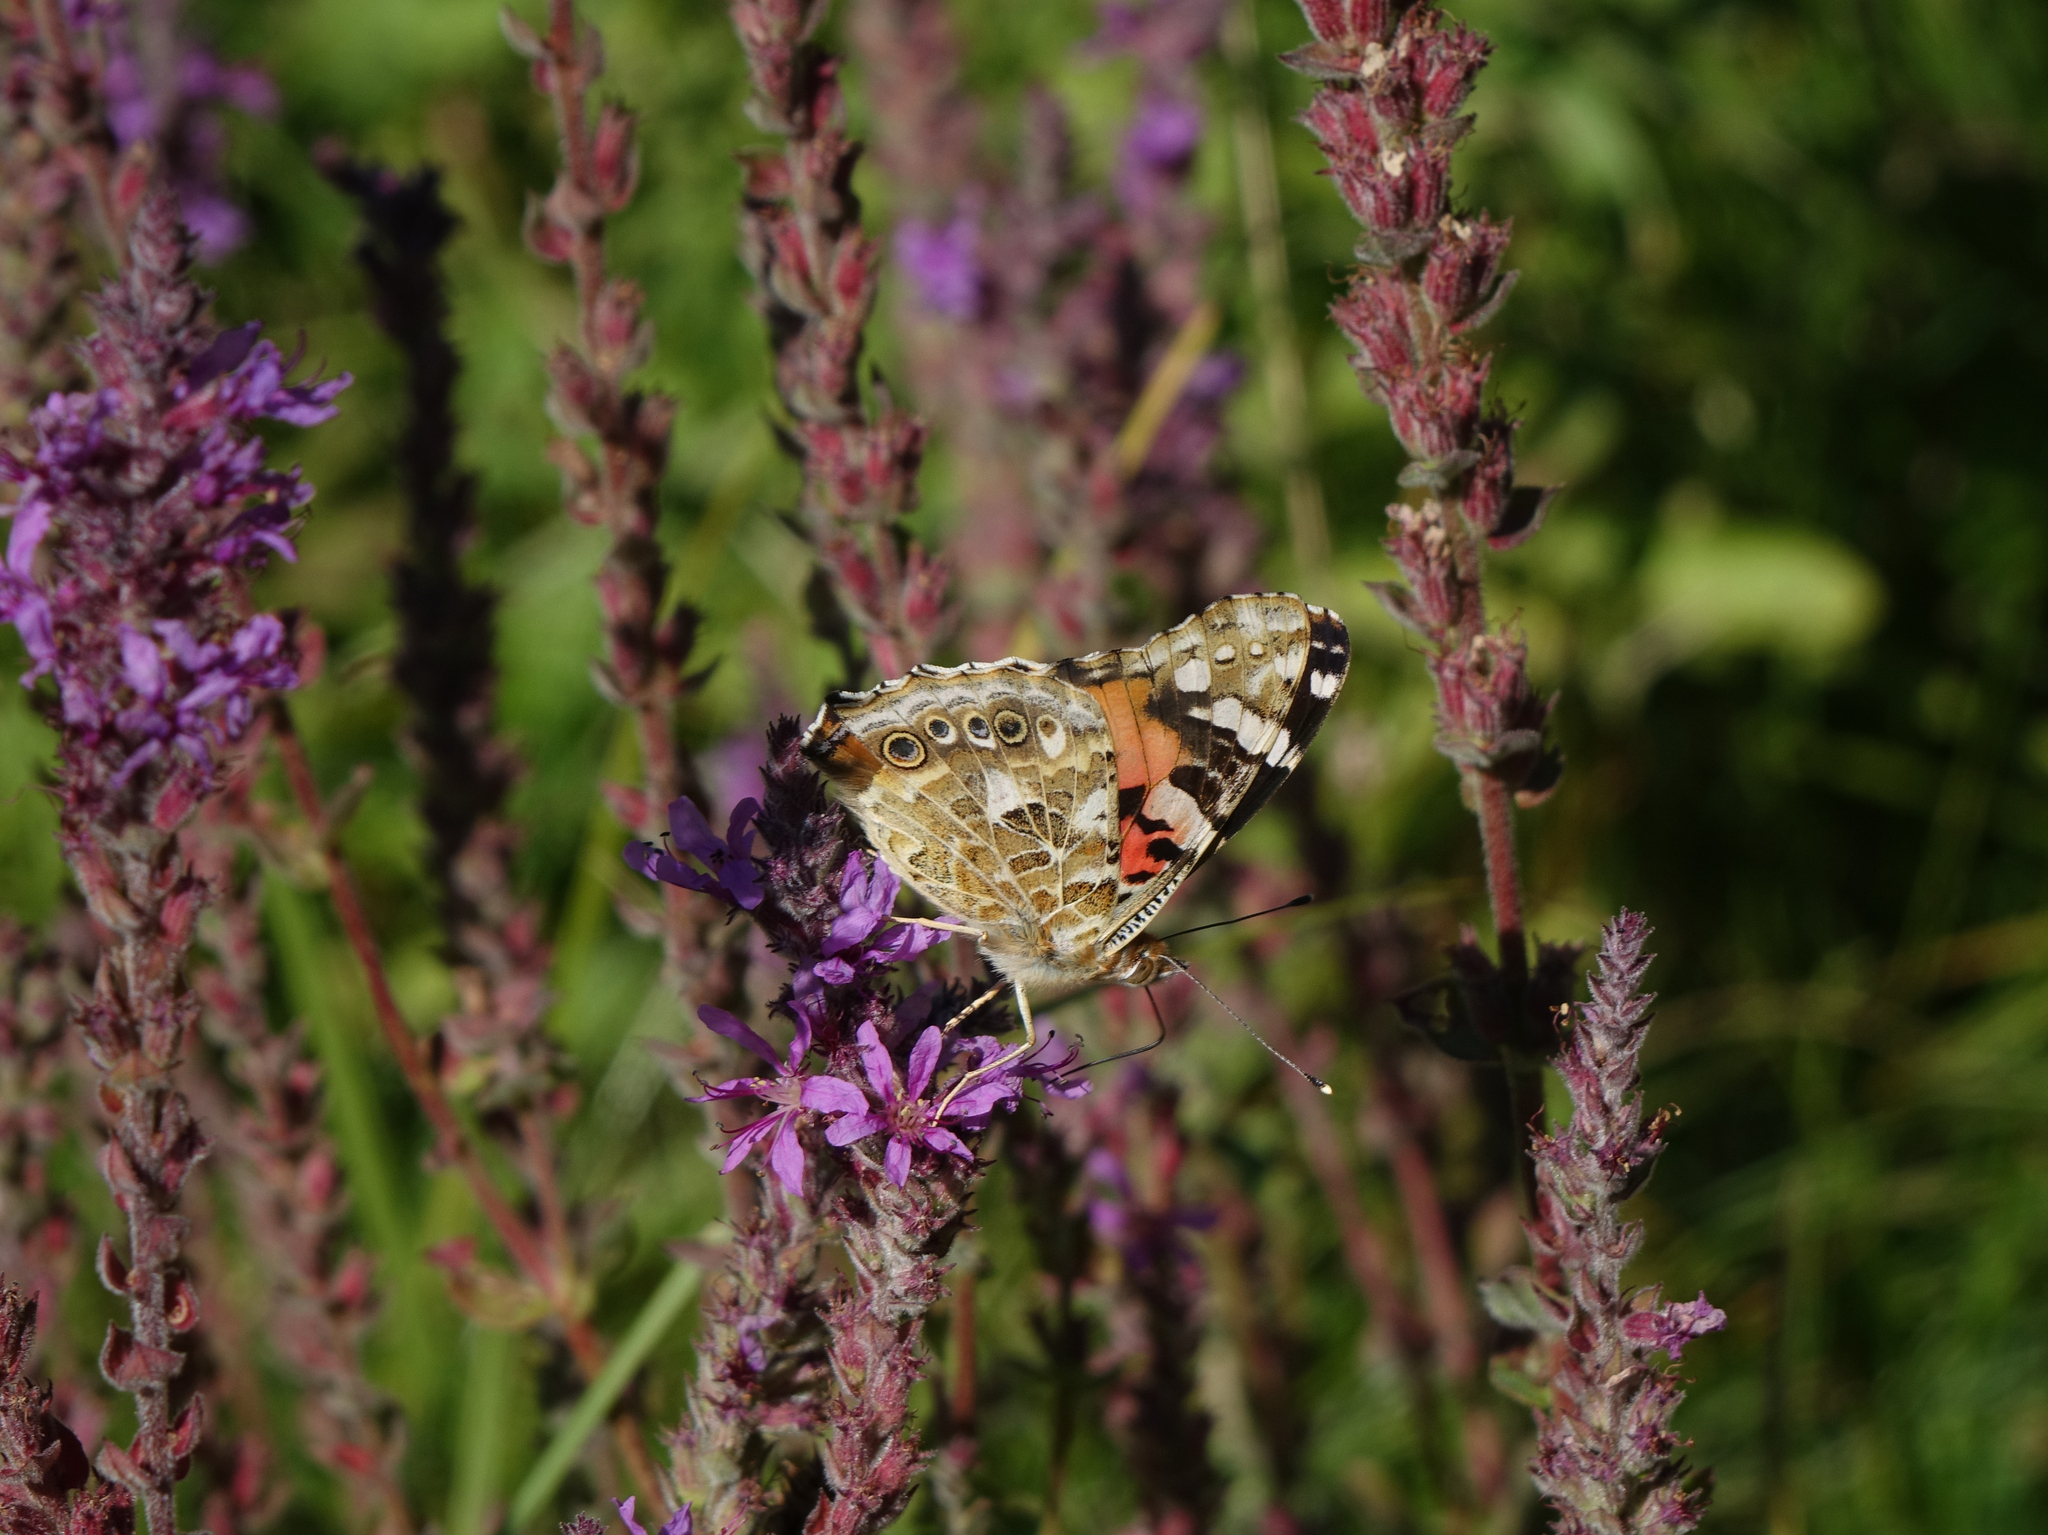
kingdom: Plantae
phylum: Tracheophyta
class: Magnoliopsida
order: Myrtales
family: Lythraceae
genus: Lythrum
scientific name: Lythrum salicaria
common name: Purple loosestrife
